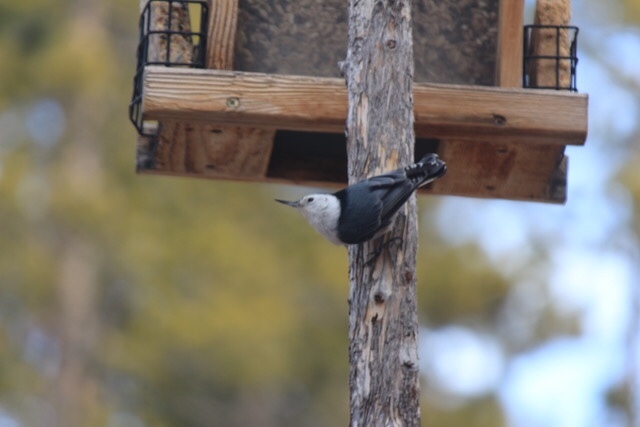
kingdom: Animalia
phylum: Chordata
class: Aves
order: Passeriformes
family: Sittidae
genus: Sitta
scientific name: Sitta carolinensis
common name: White-breasted nuthatch
